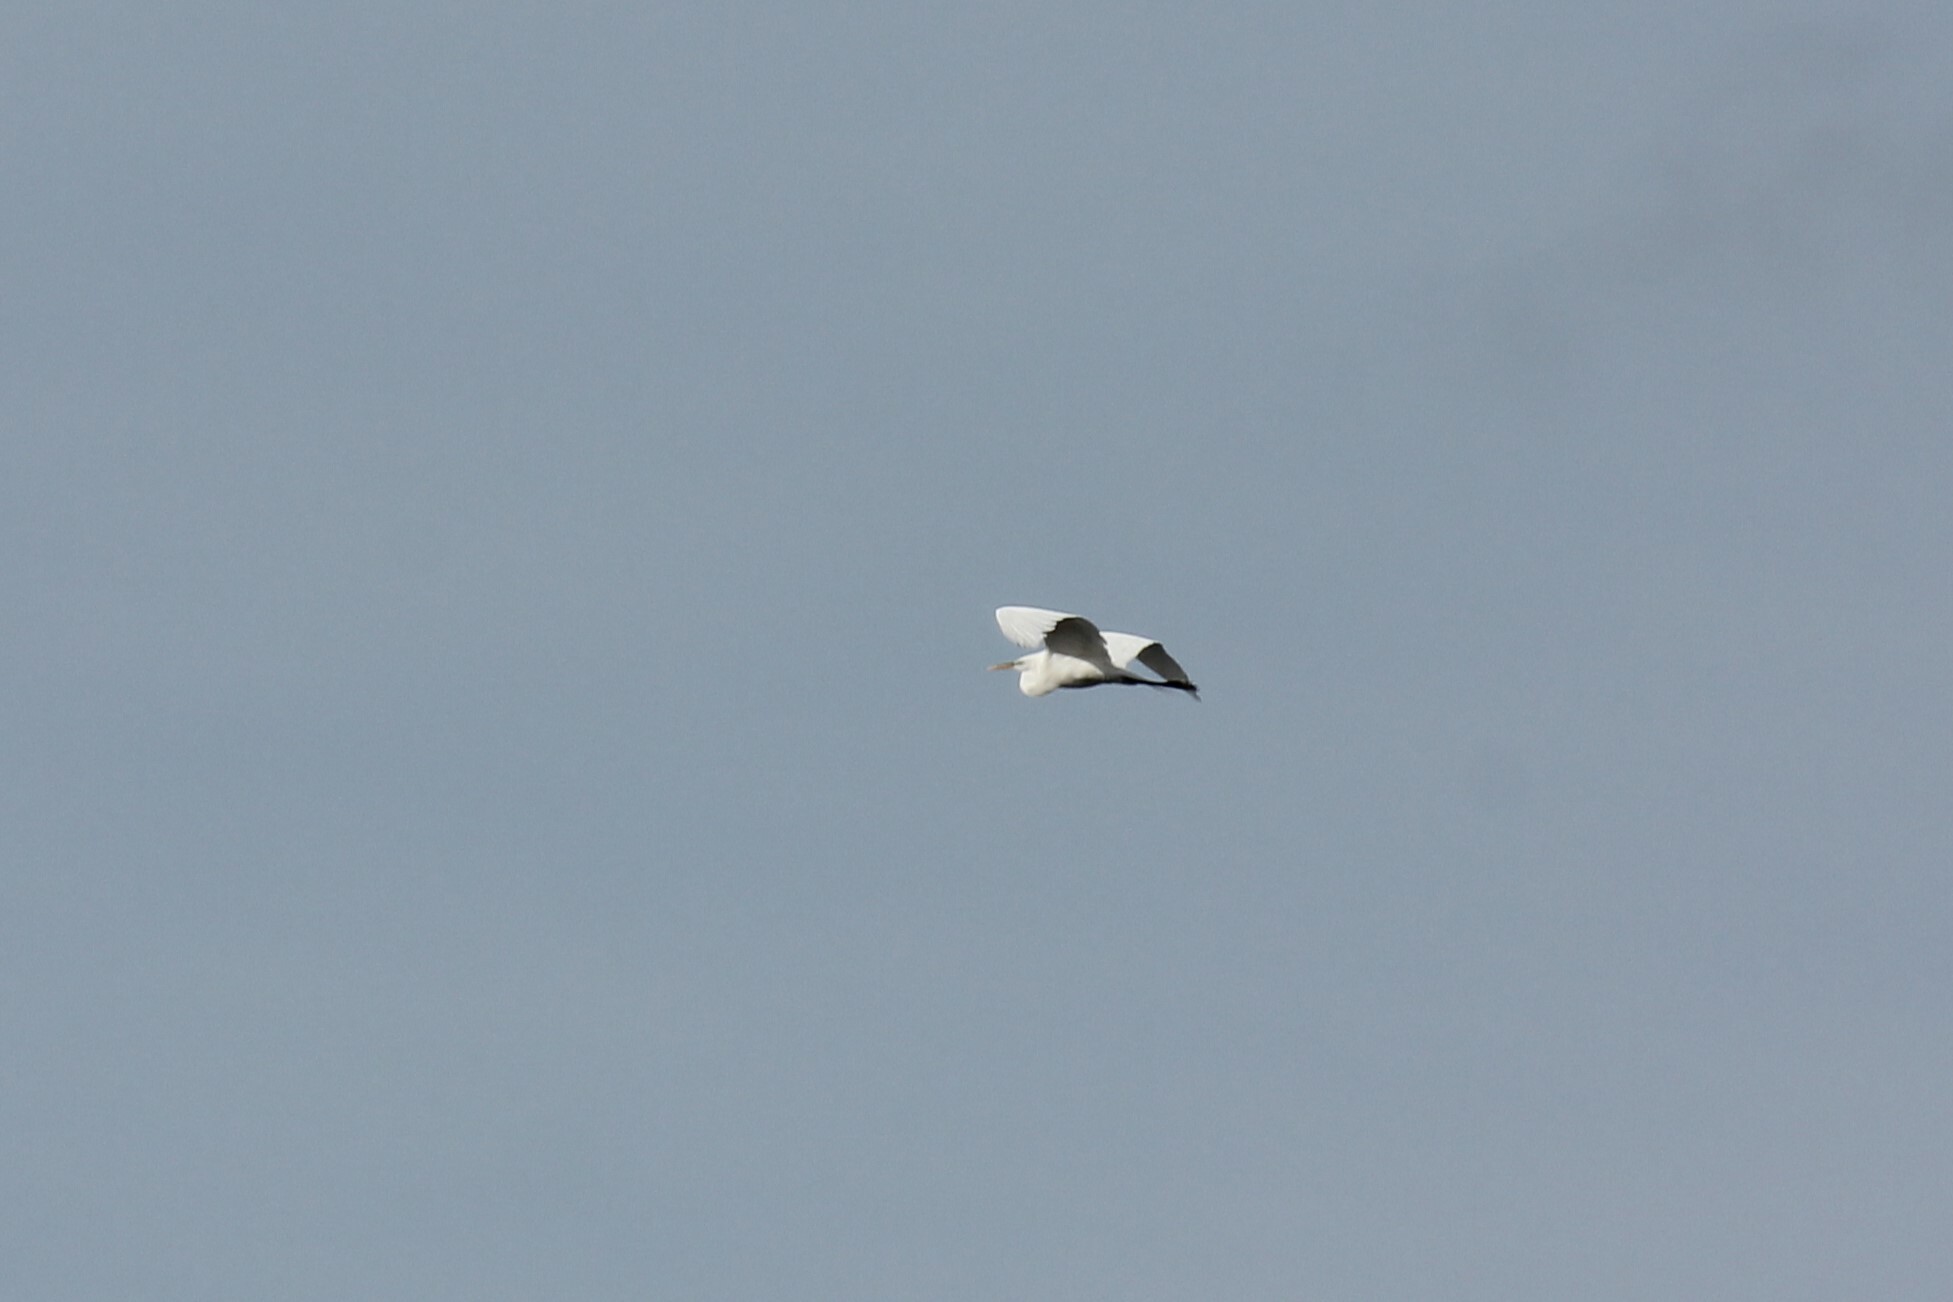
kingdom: Animalia
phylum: Chordata
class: Aves
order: Pelecaniformes
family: Ardeidae
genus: Ardea
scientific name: Ardea alba
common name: Great egret
